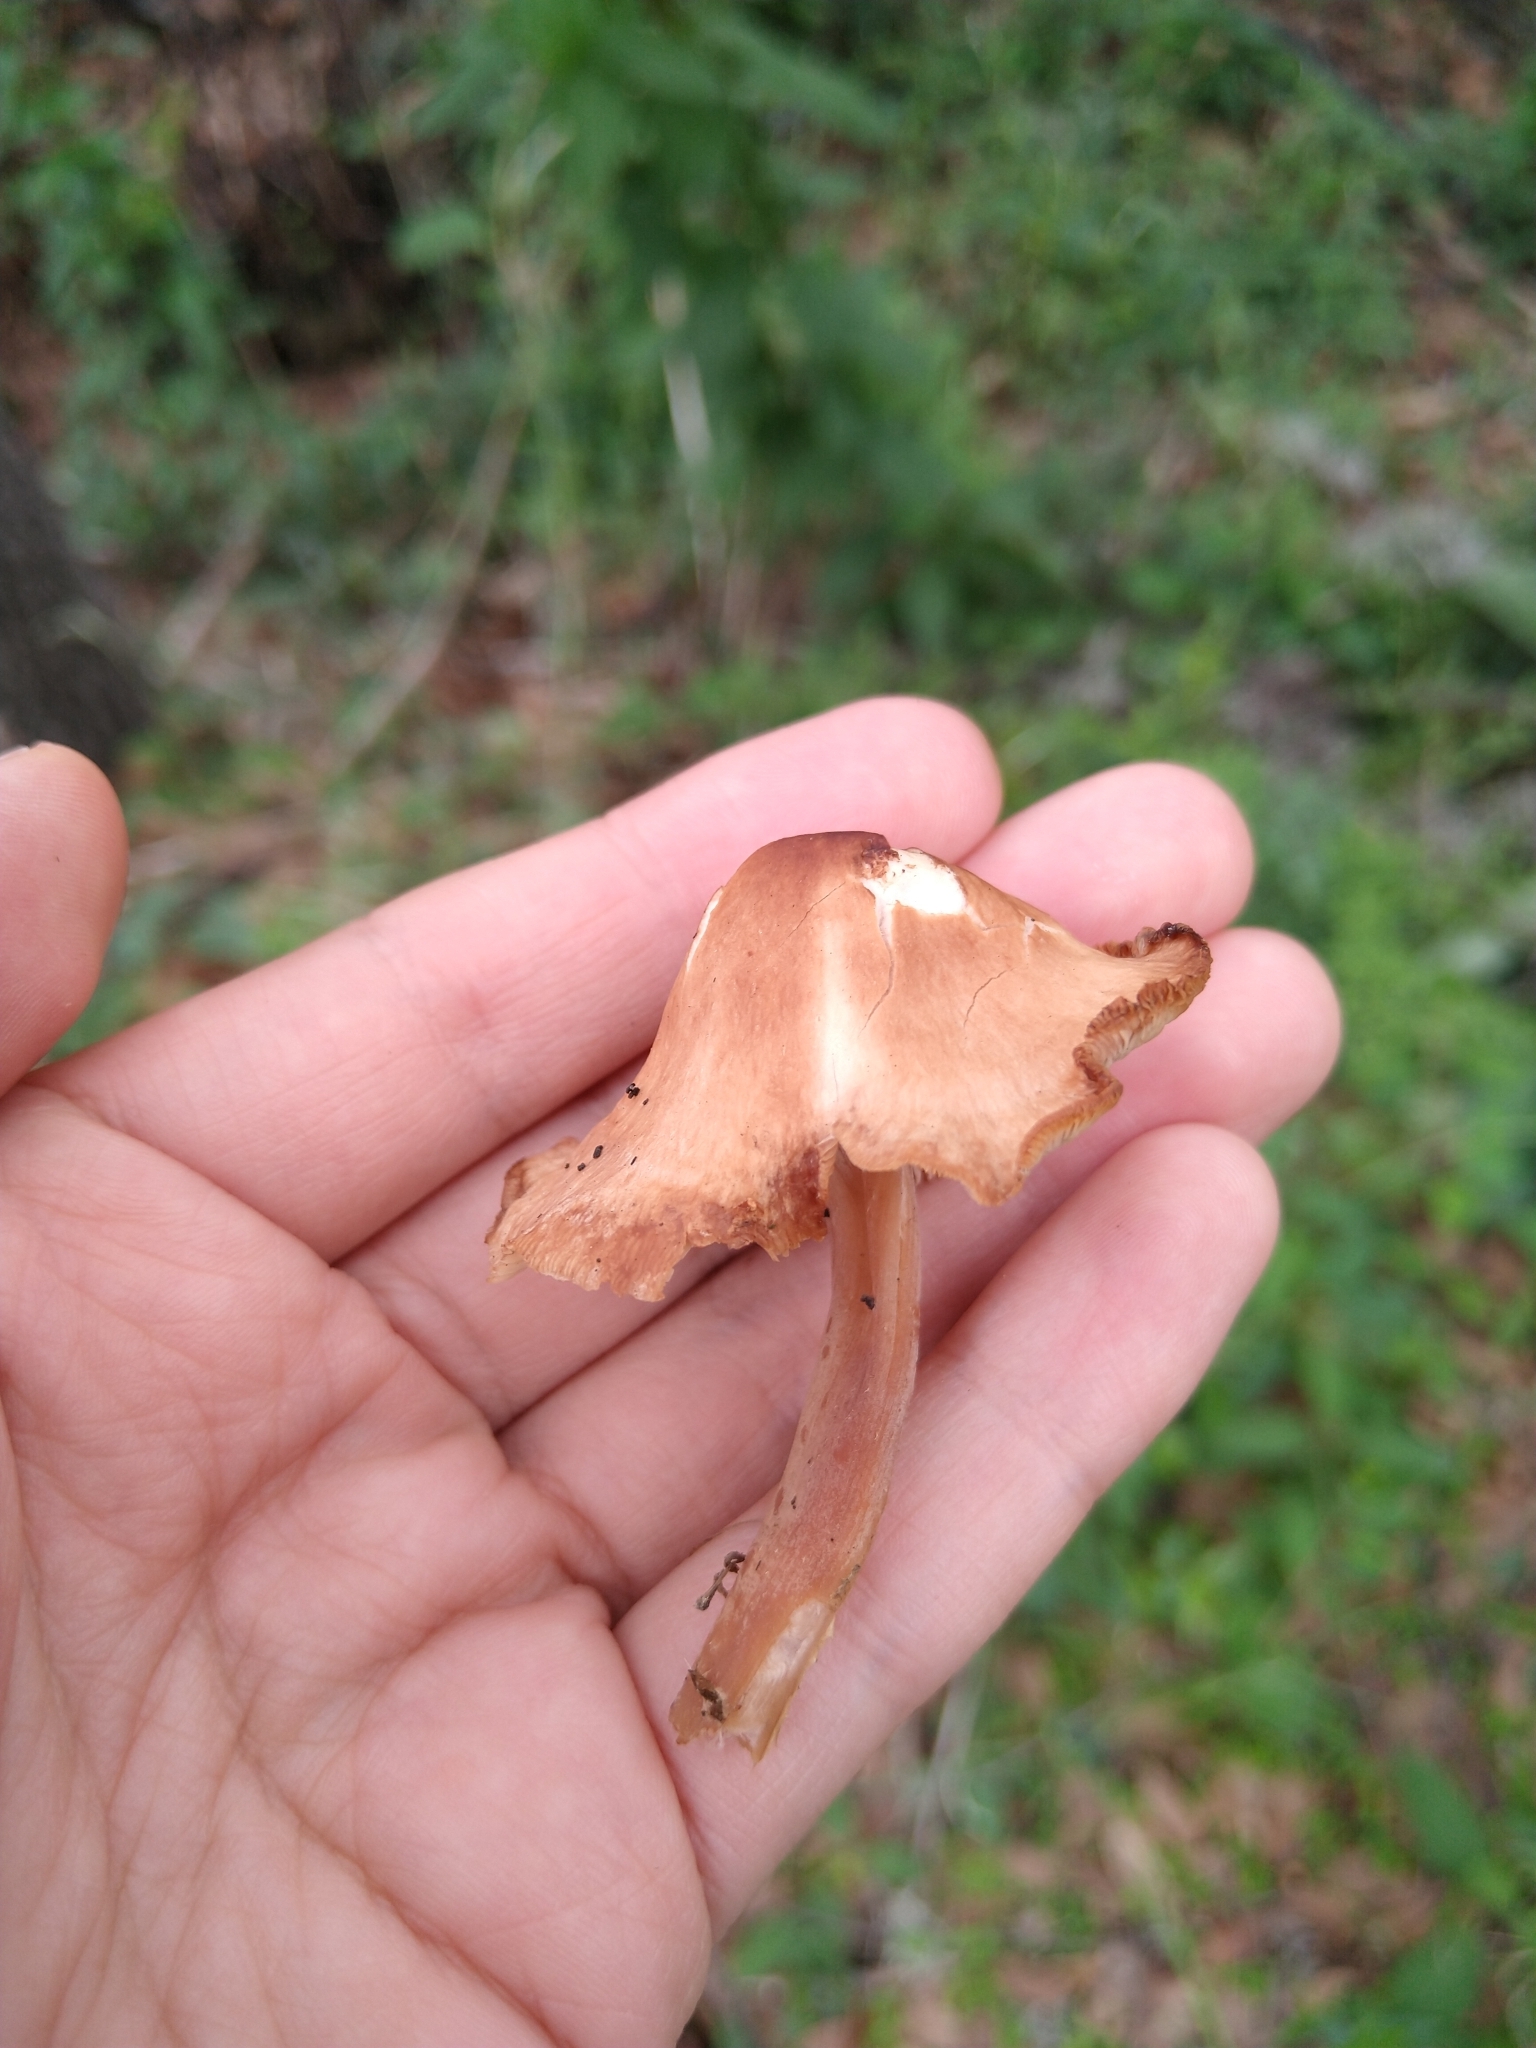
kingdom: Fungi
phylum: Basidiomycota
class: Agaricomycetes
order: Agaricales
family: Omphalotaceae
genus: Collybiopsis
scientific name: Collybiopsis luxurians
